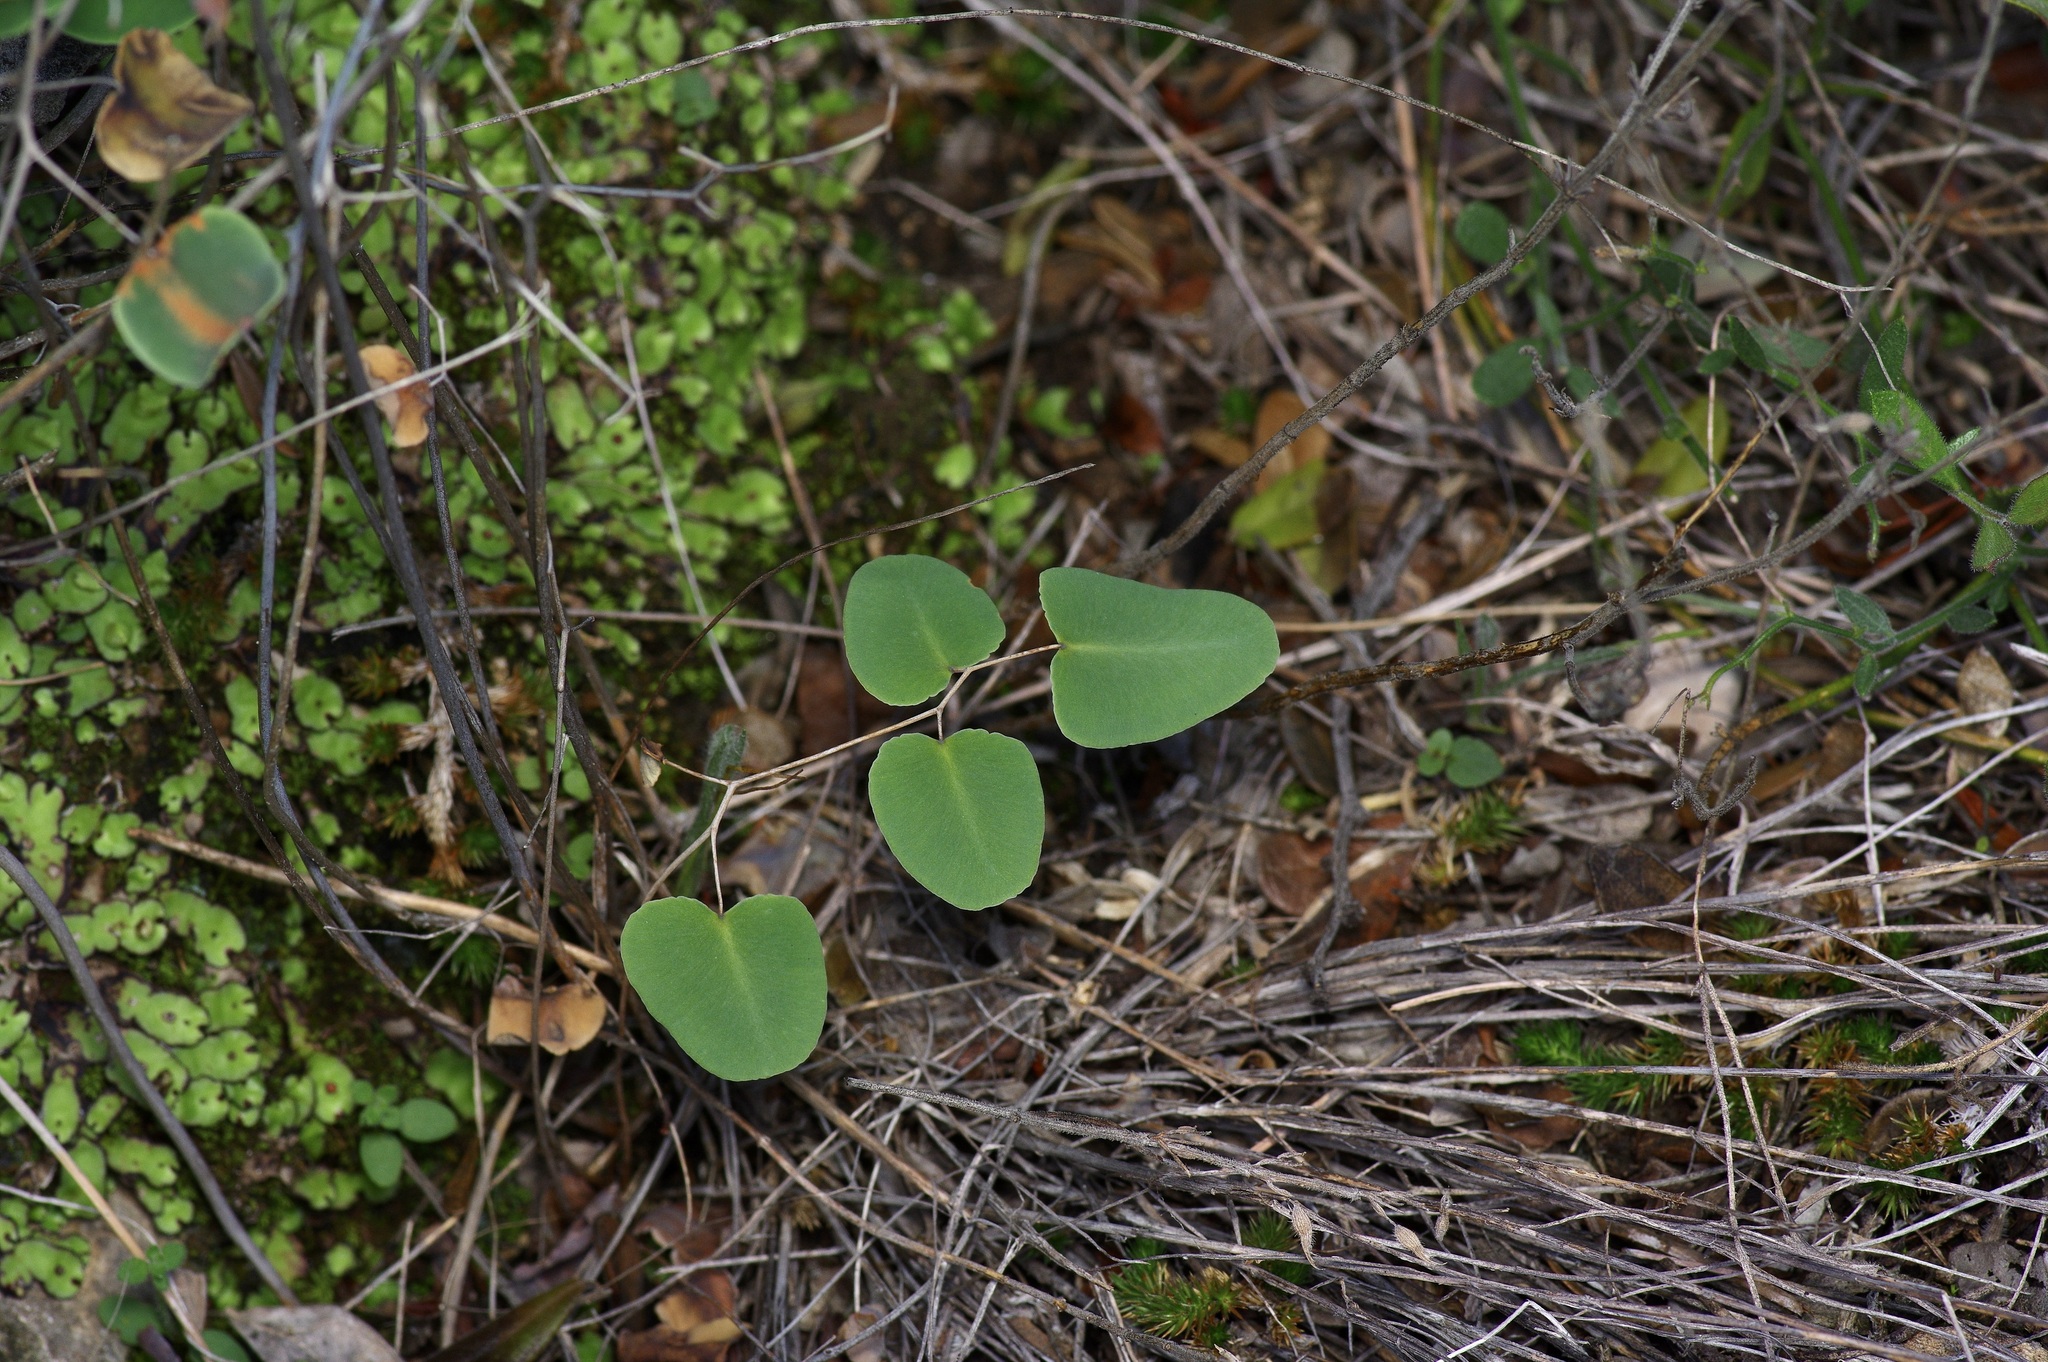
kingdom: Plantae
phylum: Tracheophyta
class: Polypodiopsida
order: Polypodiales
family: Pteridaceae
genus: Pellaea
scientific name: Pellaea ovata
